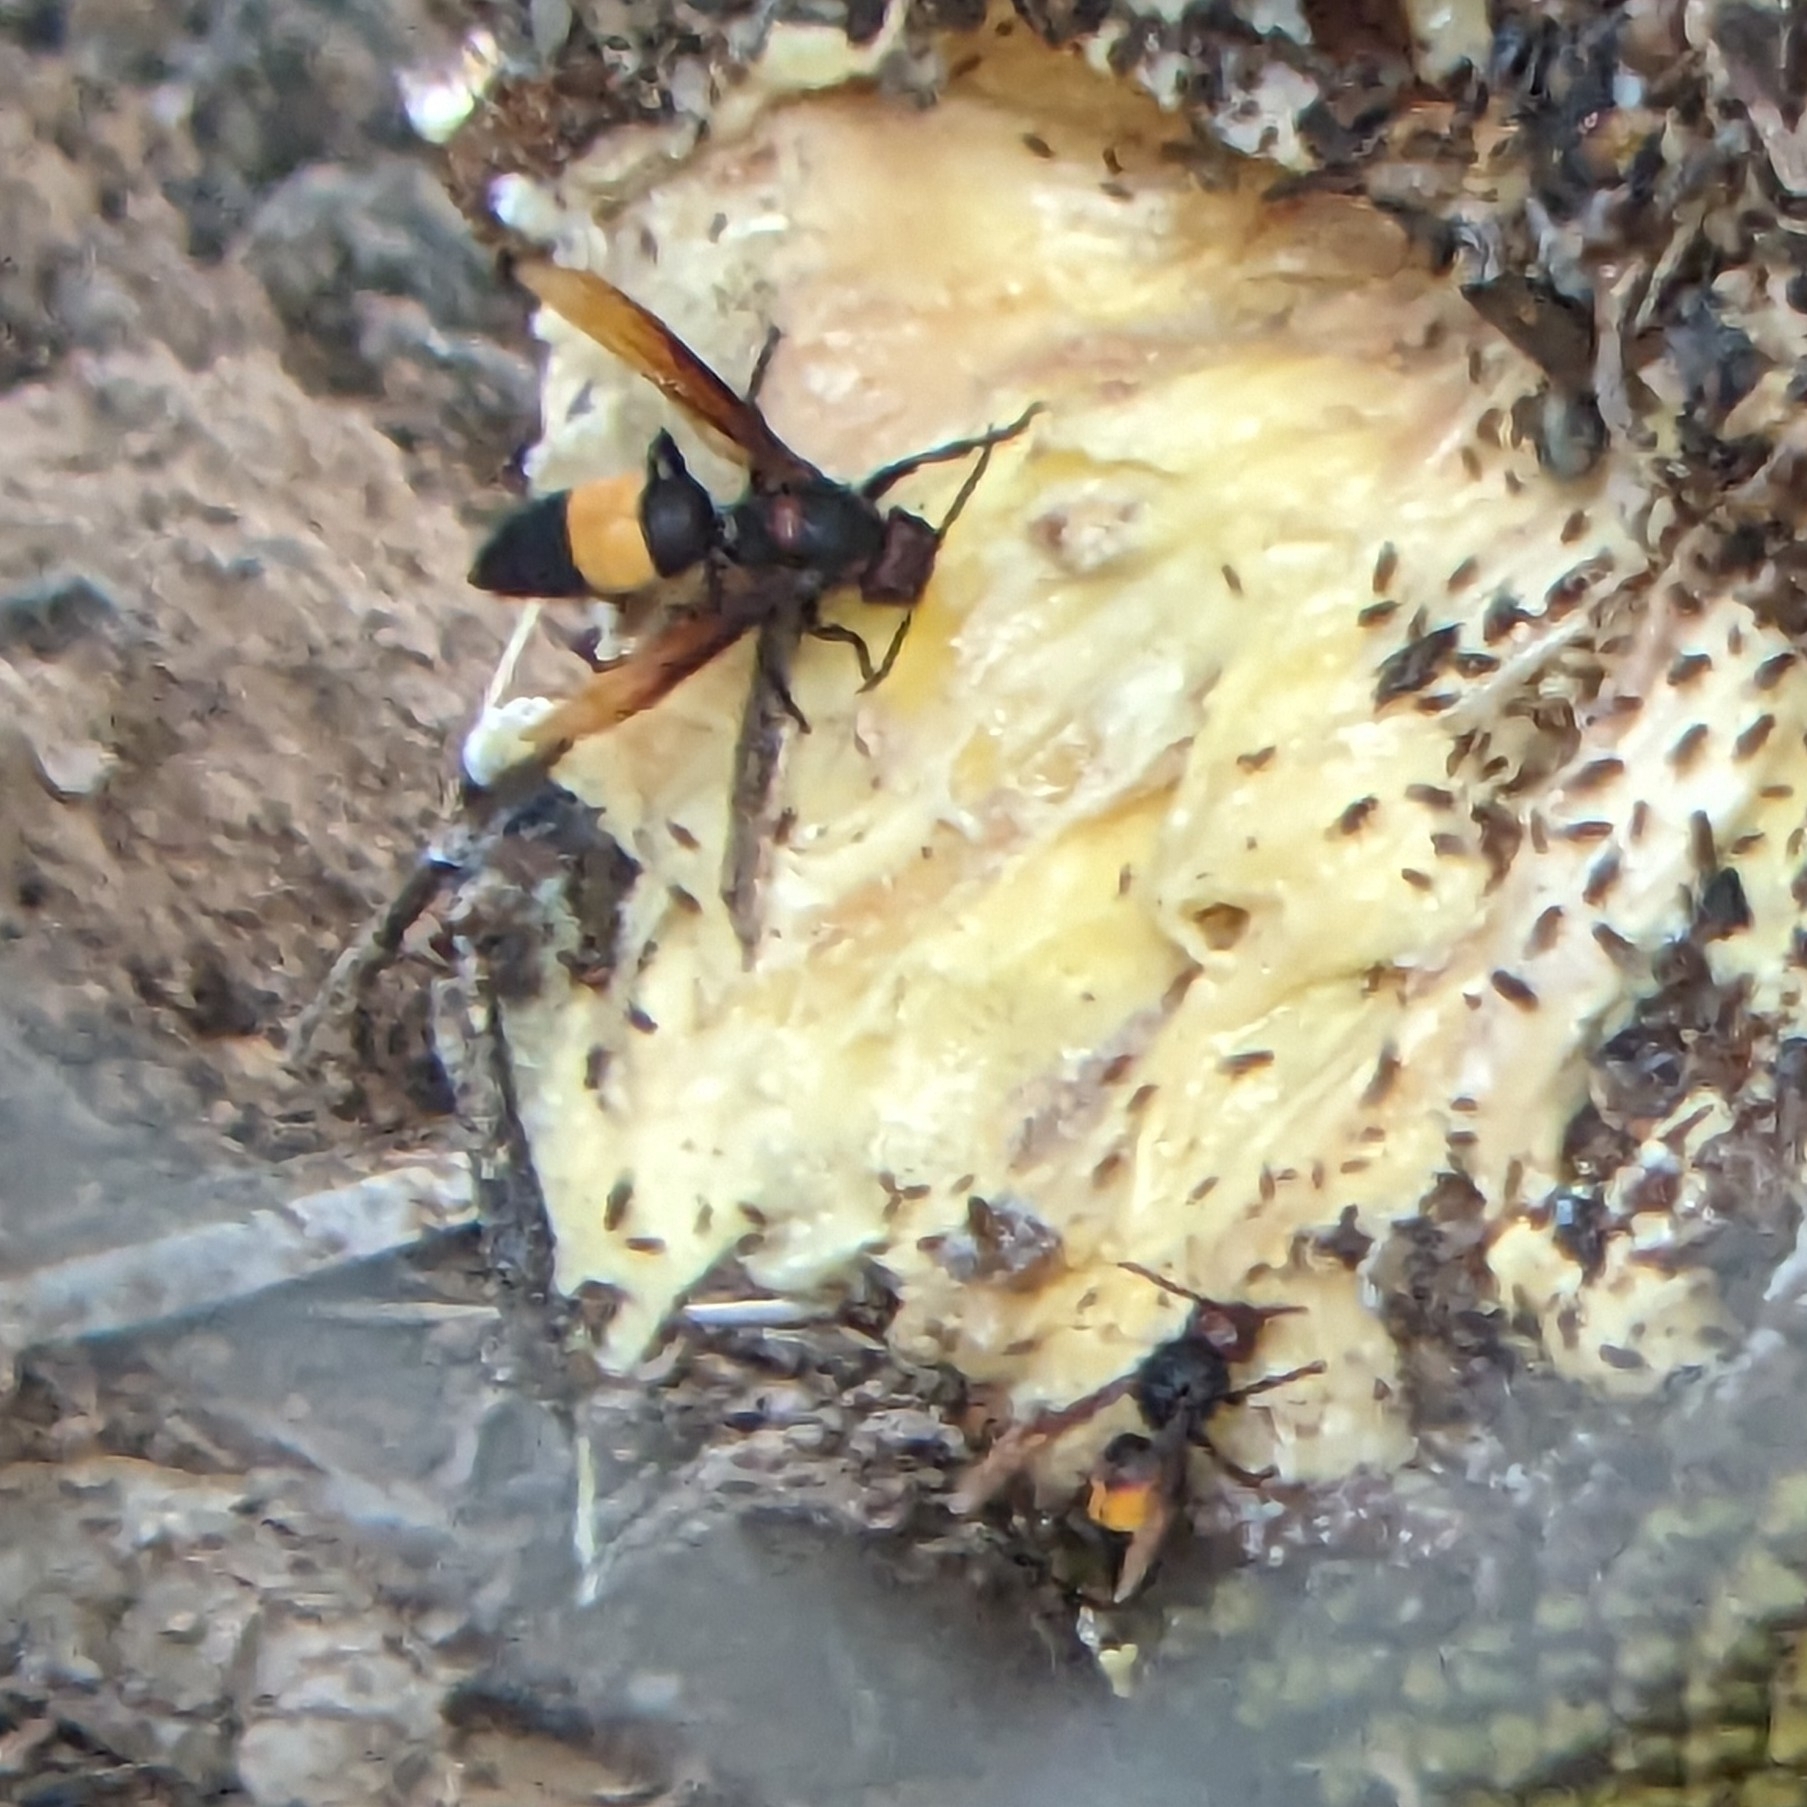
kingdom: Animalia
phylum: Arthropoda
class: Insecta
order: Hymenoptera
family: Vespidae
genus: Vespa
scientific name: Vespa tropica
